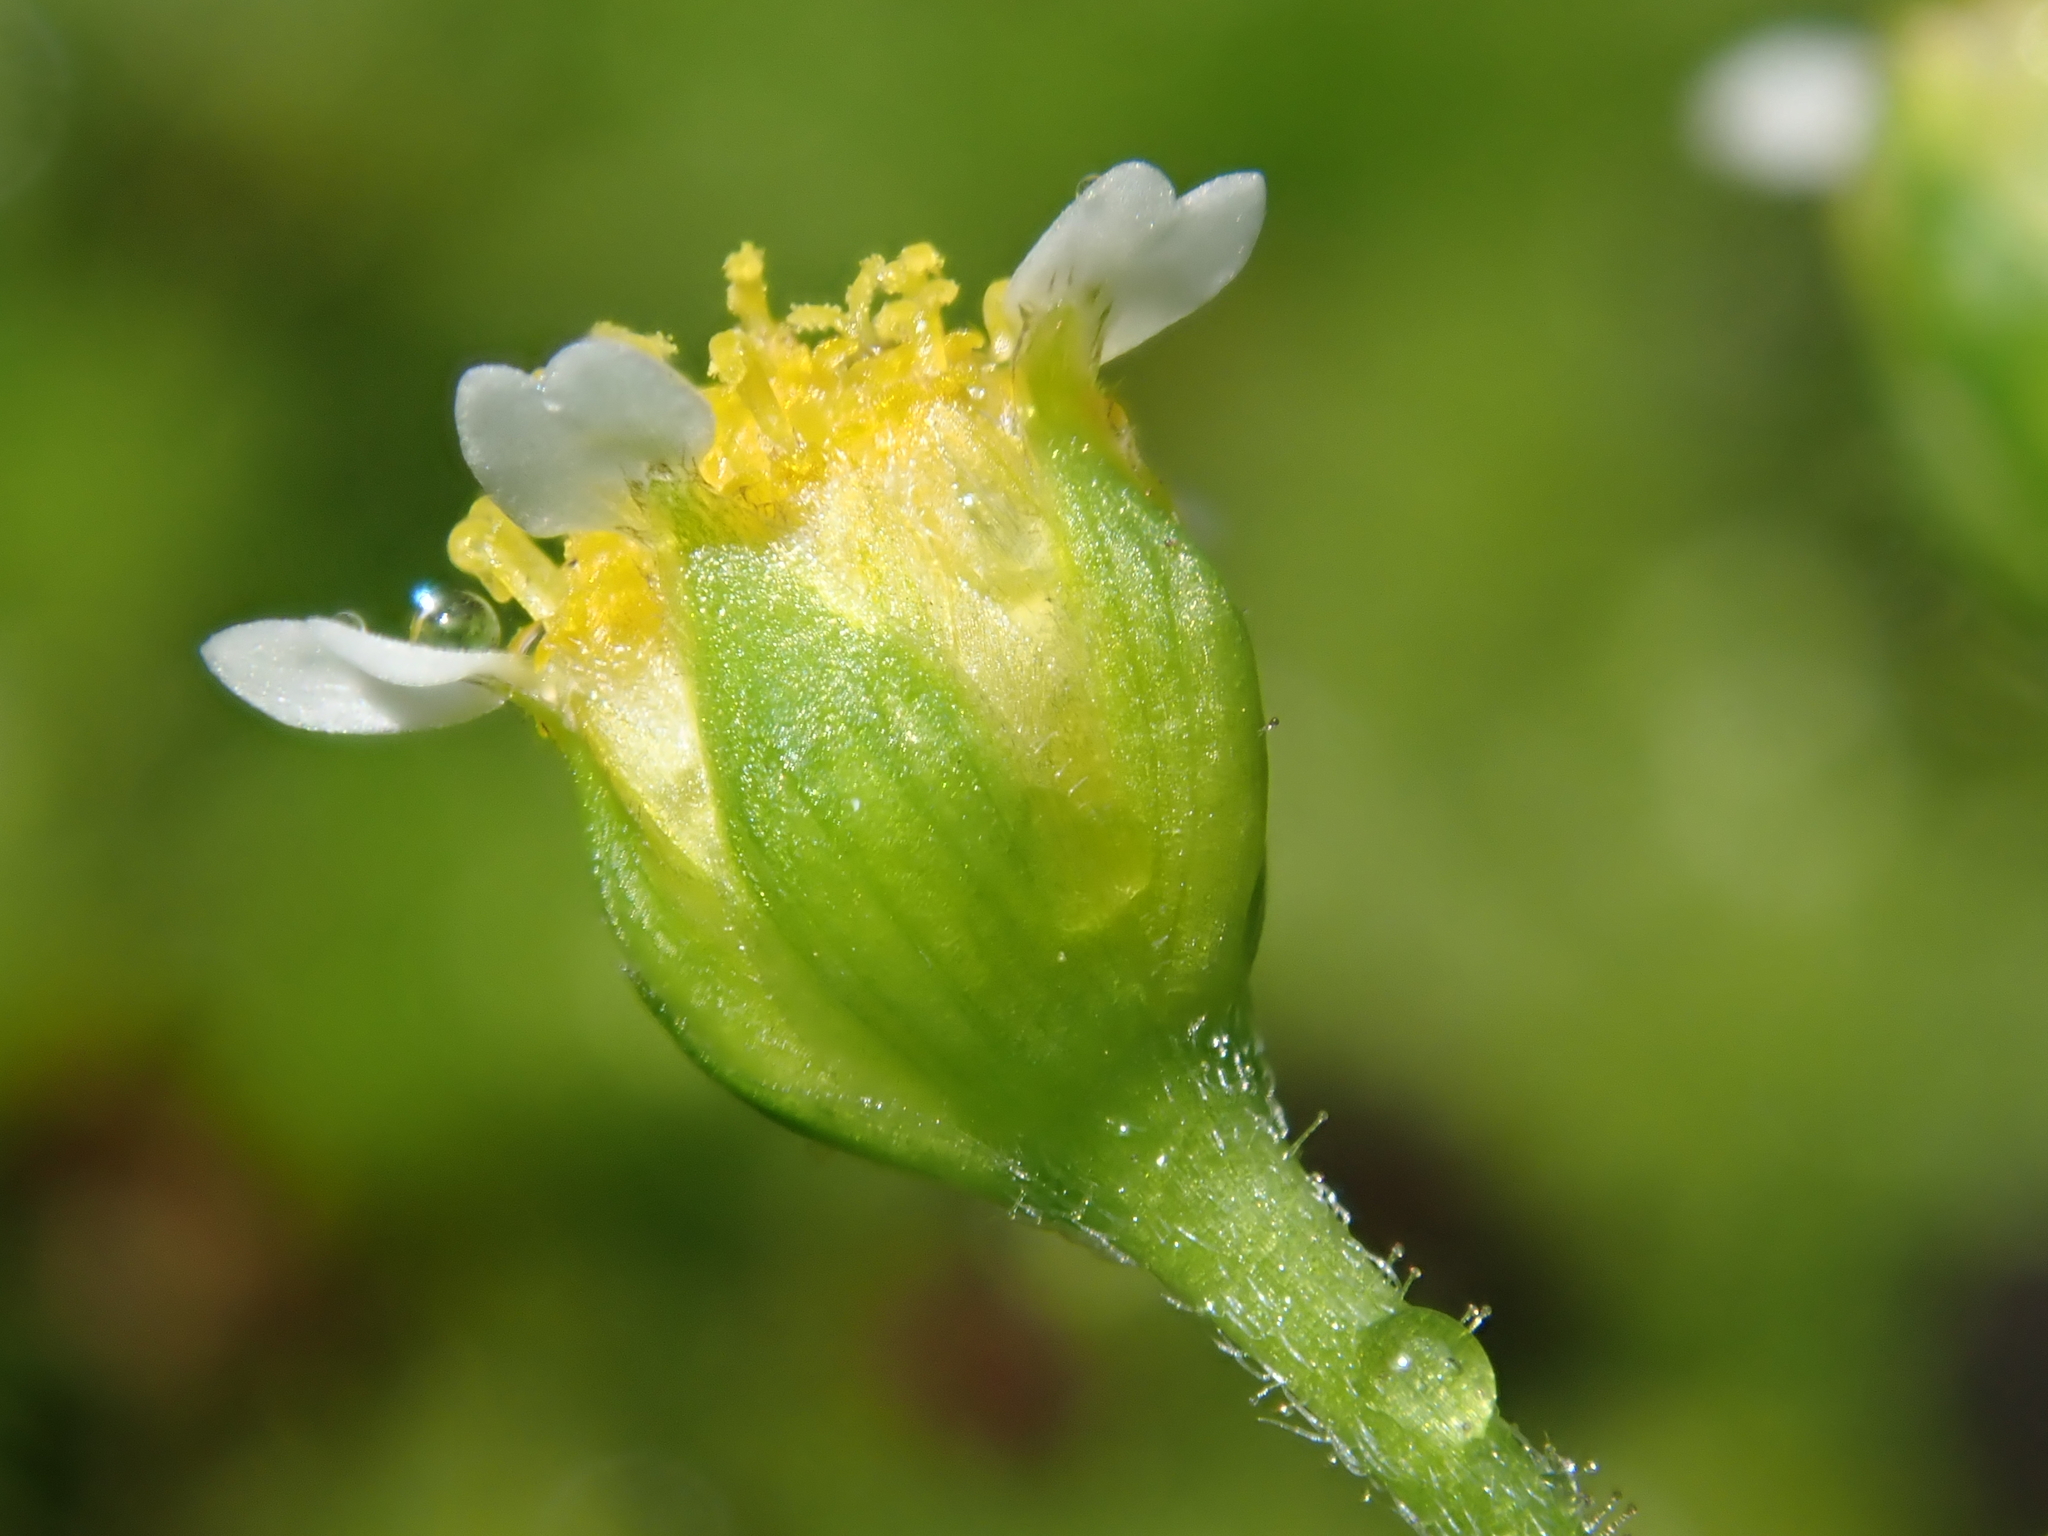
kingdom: Plantae
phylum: Tracheophyta
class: Magnoliopsida
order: Asterales
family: Asteraceae
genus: Galinsoga
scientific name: Galinsoga parviflora
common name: Gallant soldier
